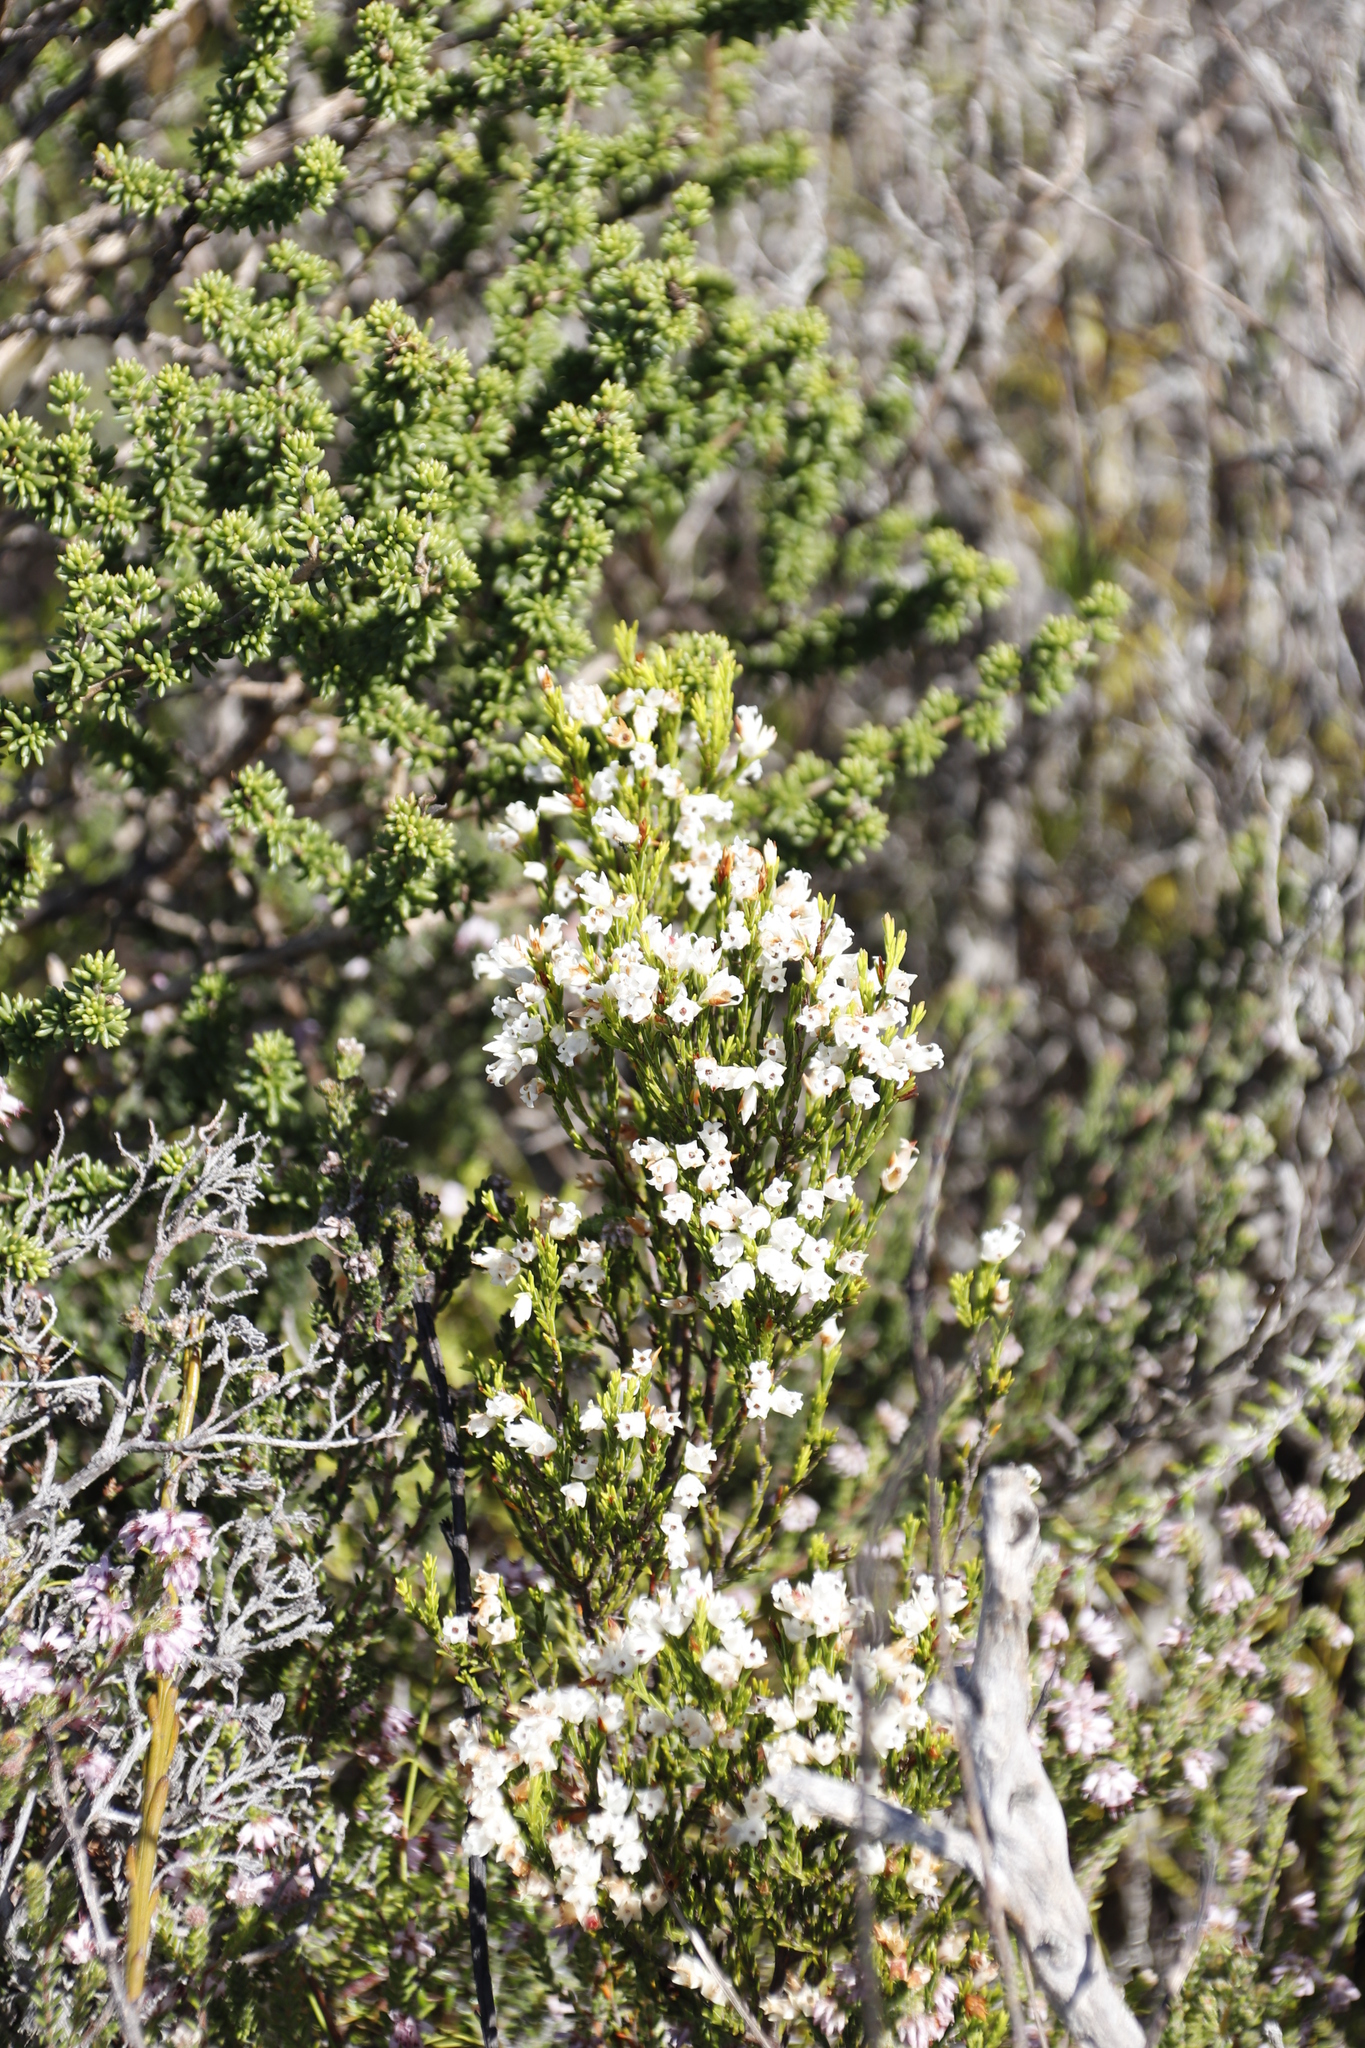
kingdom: Plantae
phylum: Tracheophyta
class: Magnoliopsida
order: Ericales
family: Ericaceae
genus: Erica
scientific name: Erica lutea
